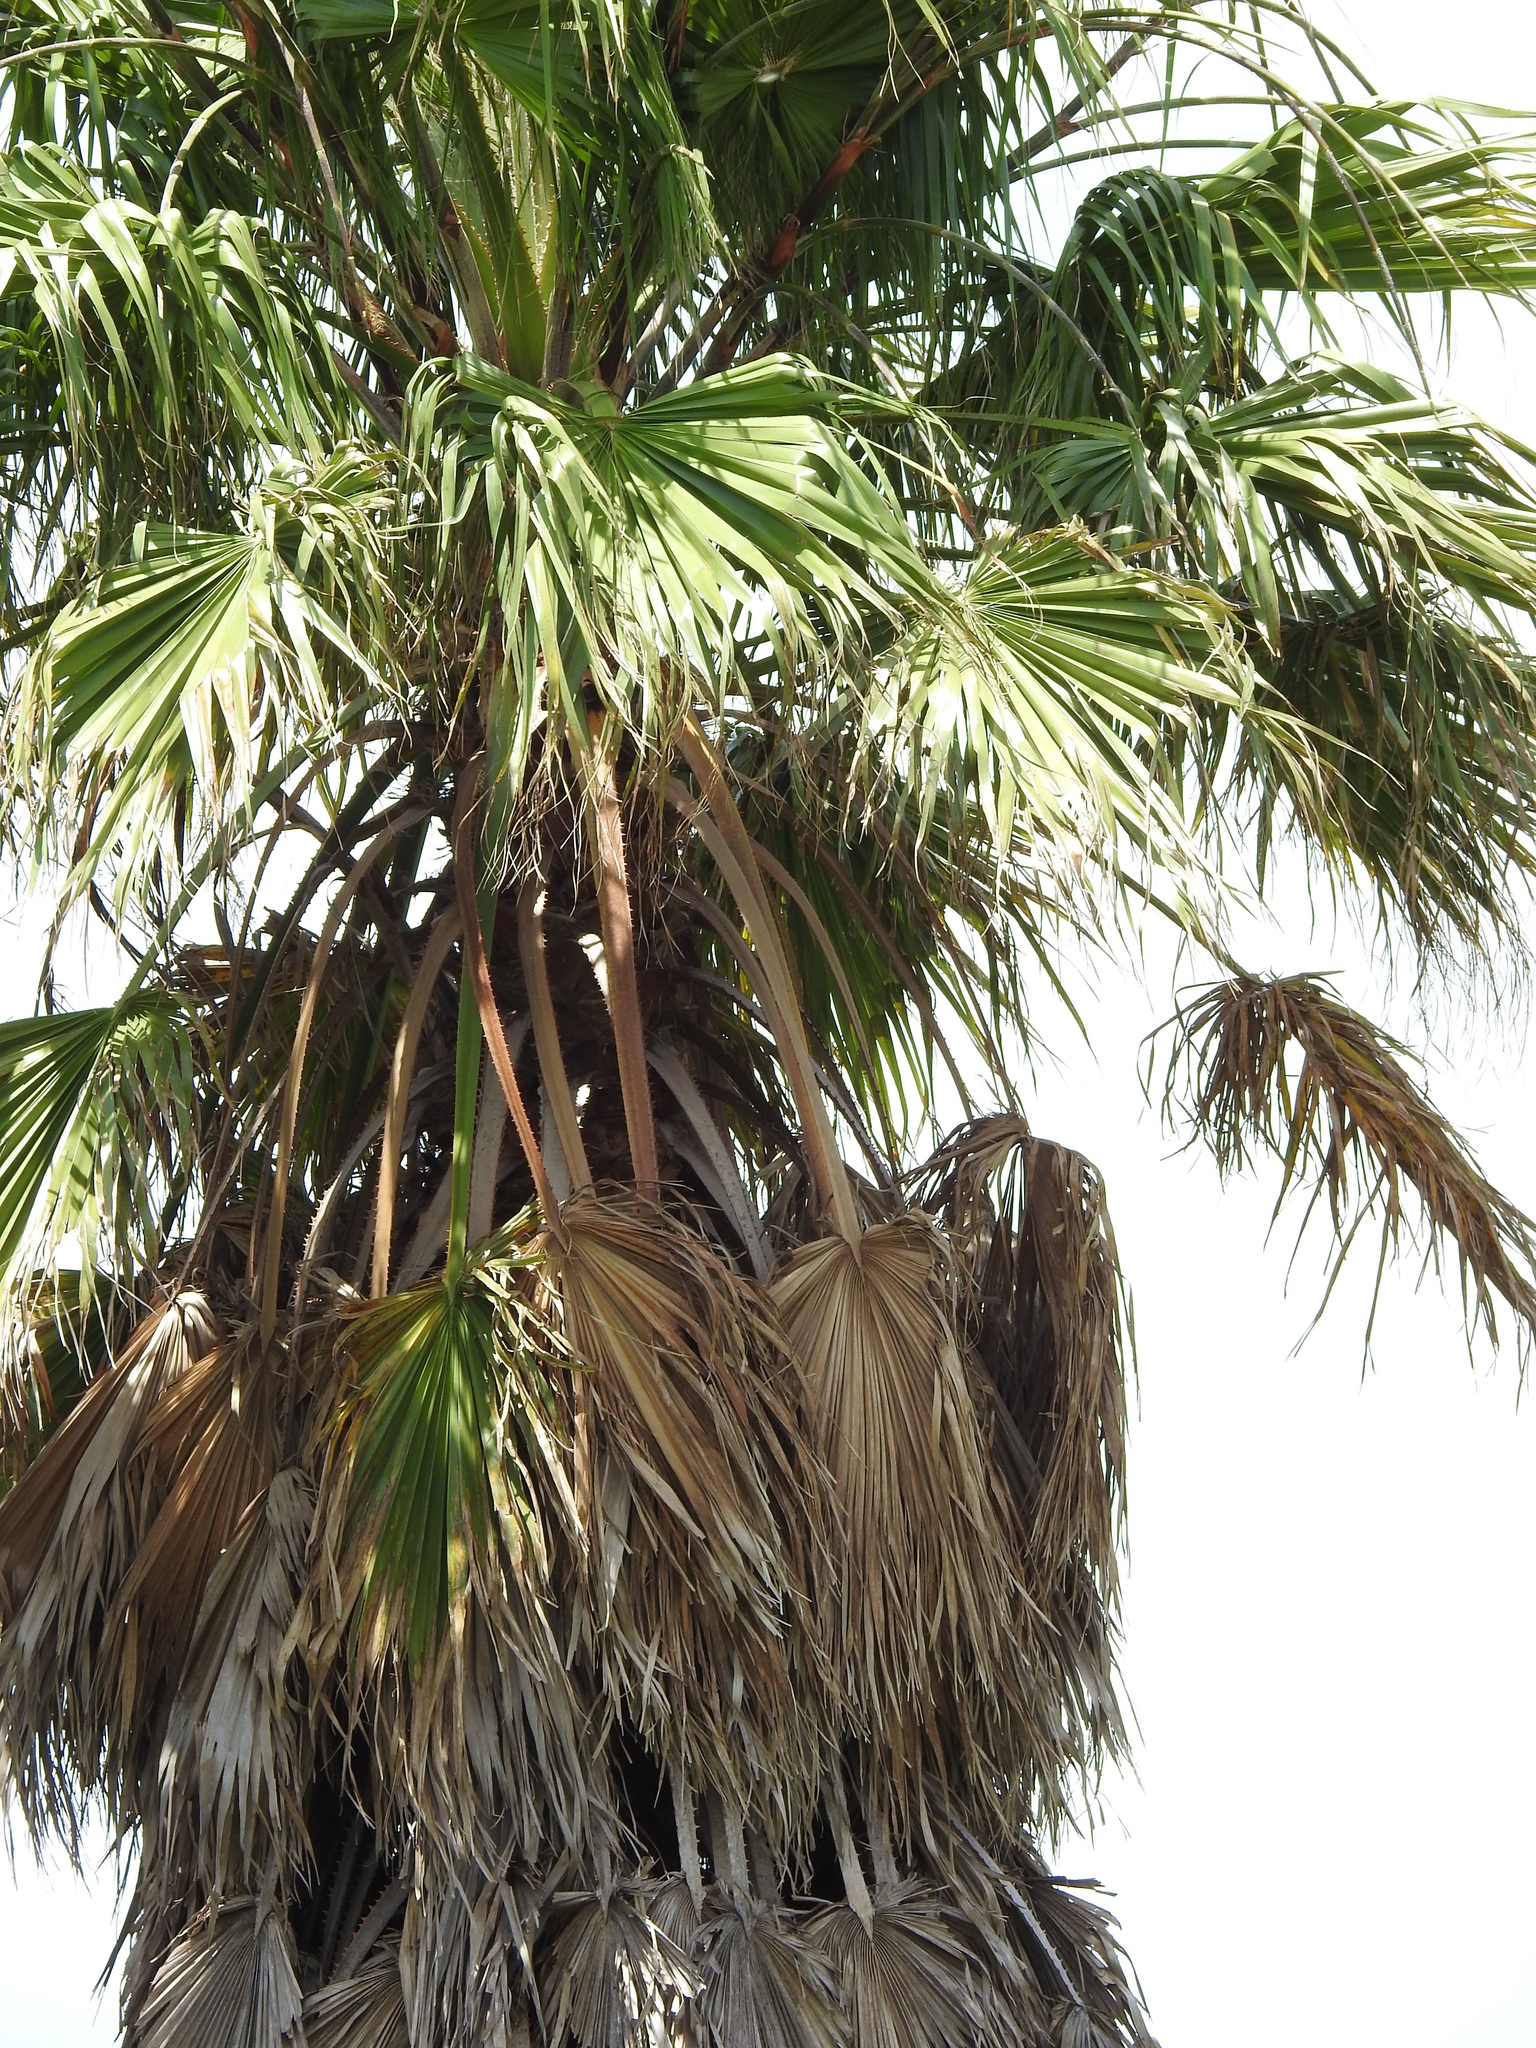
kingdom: Plantae
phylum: Tracheophyta
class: Liliopsida
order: Arecales
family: Arecaceae
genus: Washingtonia
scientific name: Washingtonia robusta
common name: Mexican fan palm
